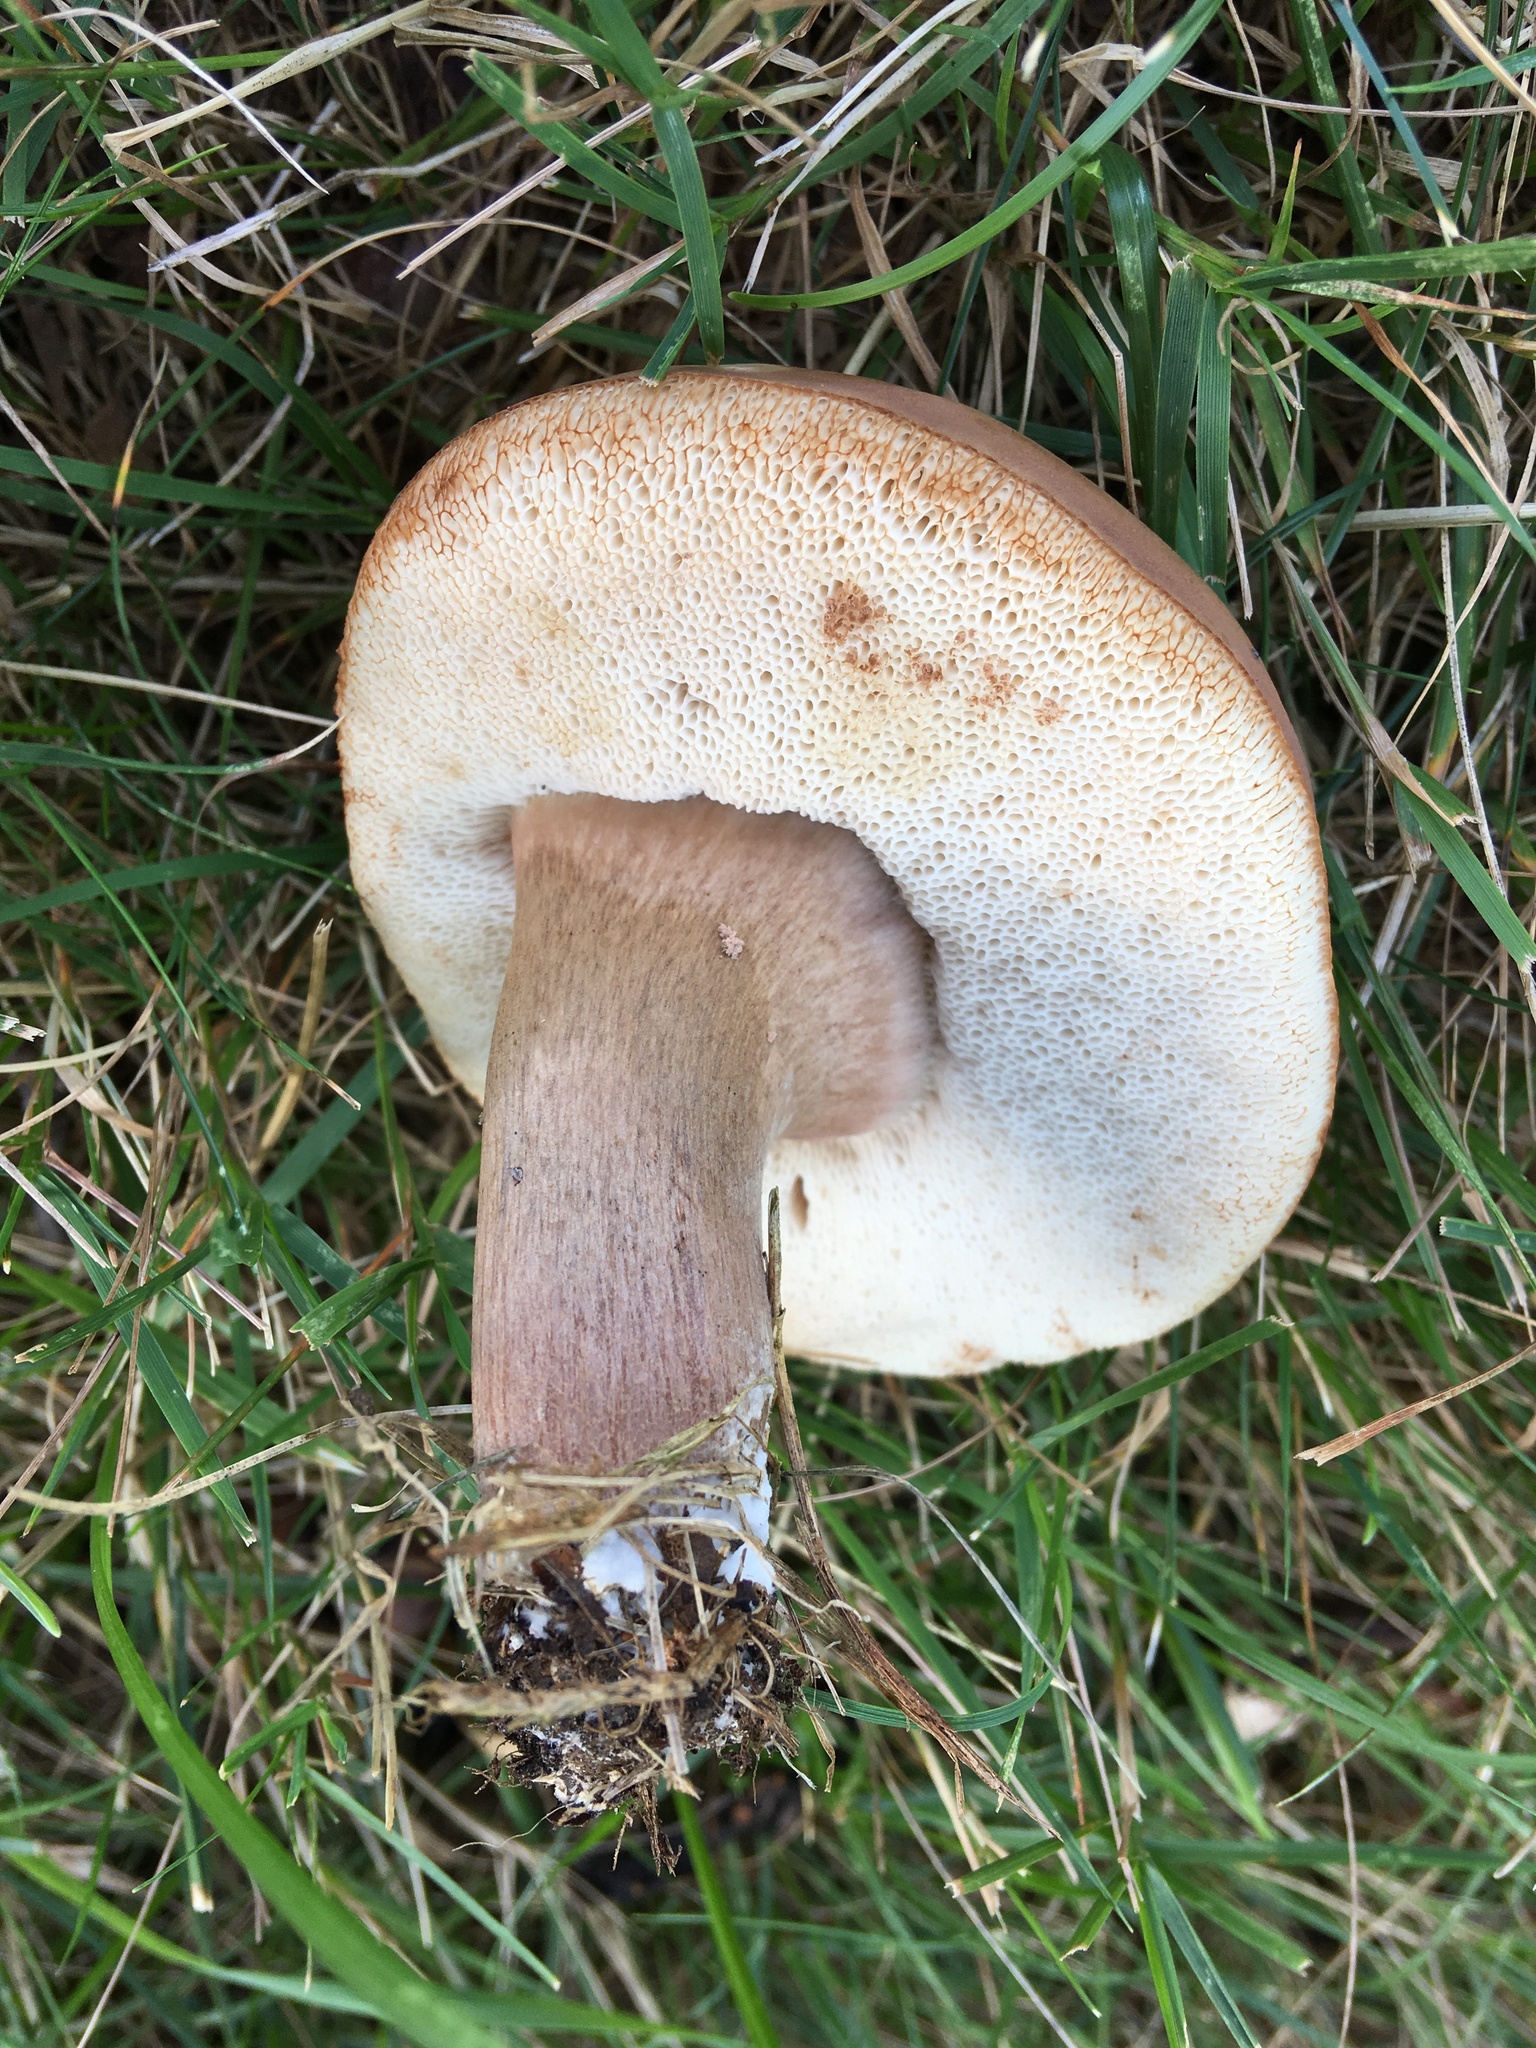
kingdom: Fungi
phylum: Basidiomycota
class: Agaricomycetes
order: Boletales
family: Boletaceae
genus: Tylopilus
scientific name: Tylopilus ferrugineus
